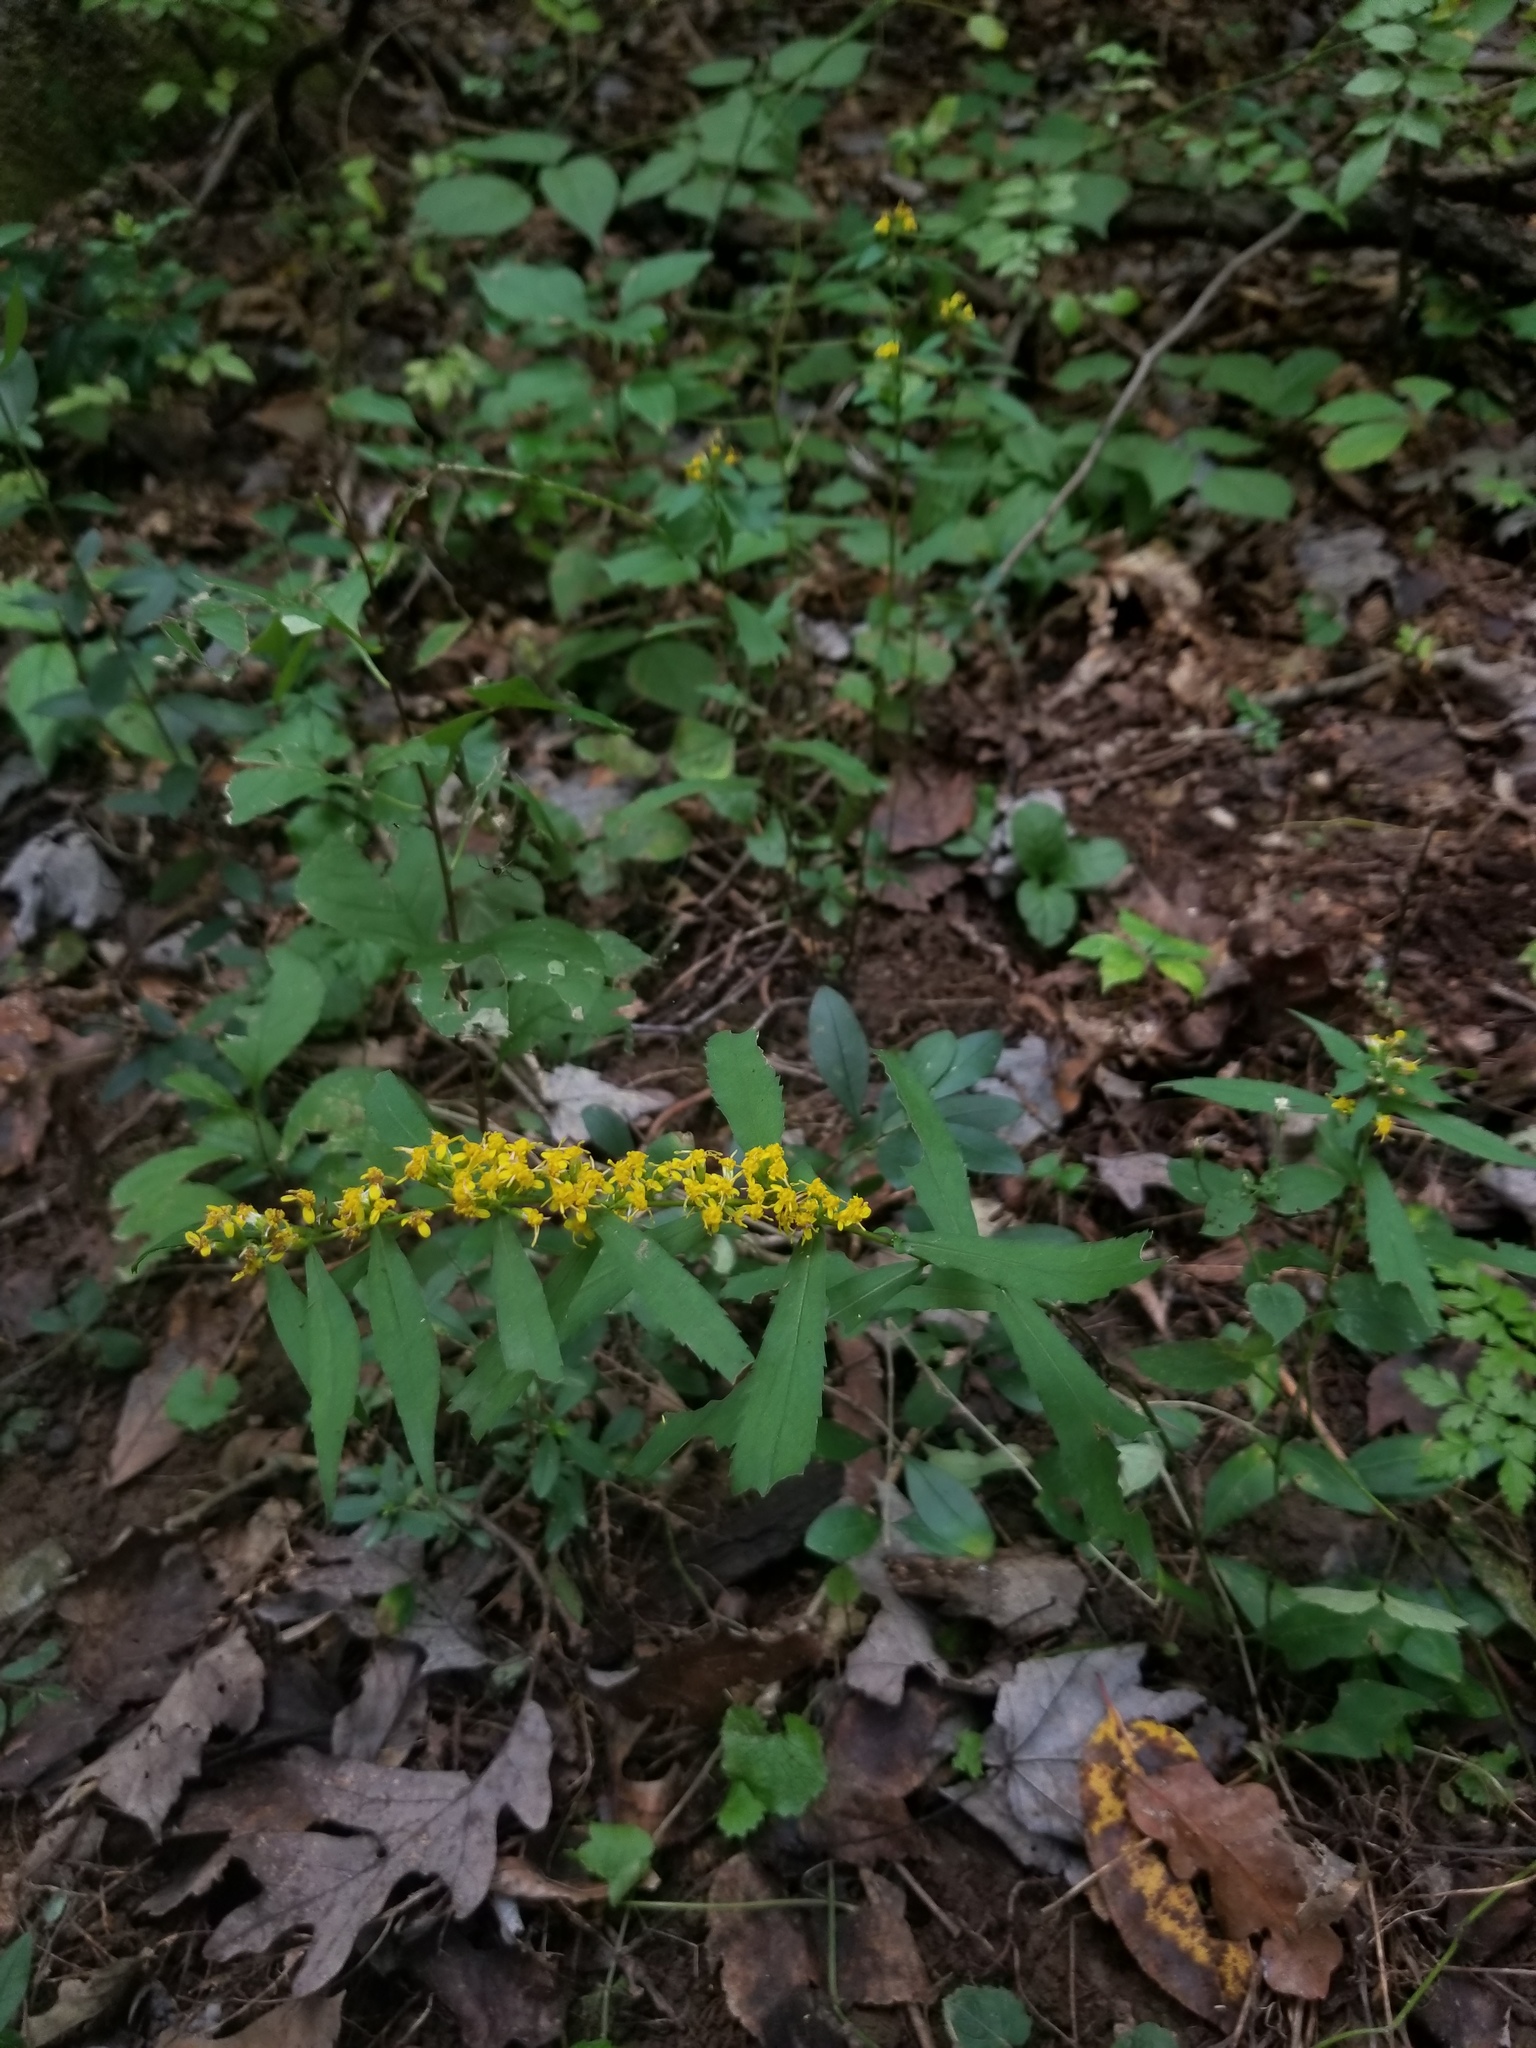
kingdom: Plantae
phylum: Tracheophyta
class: Magnoliopsida
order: Asterales
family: Asteraceae
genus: Solidago
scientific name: Solidago caesia
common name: Woodland goldenrod
